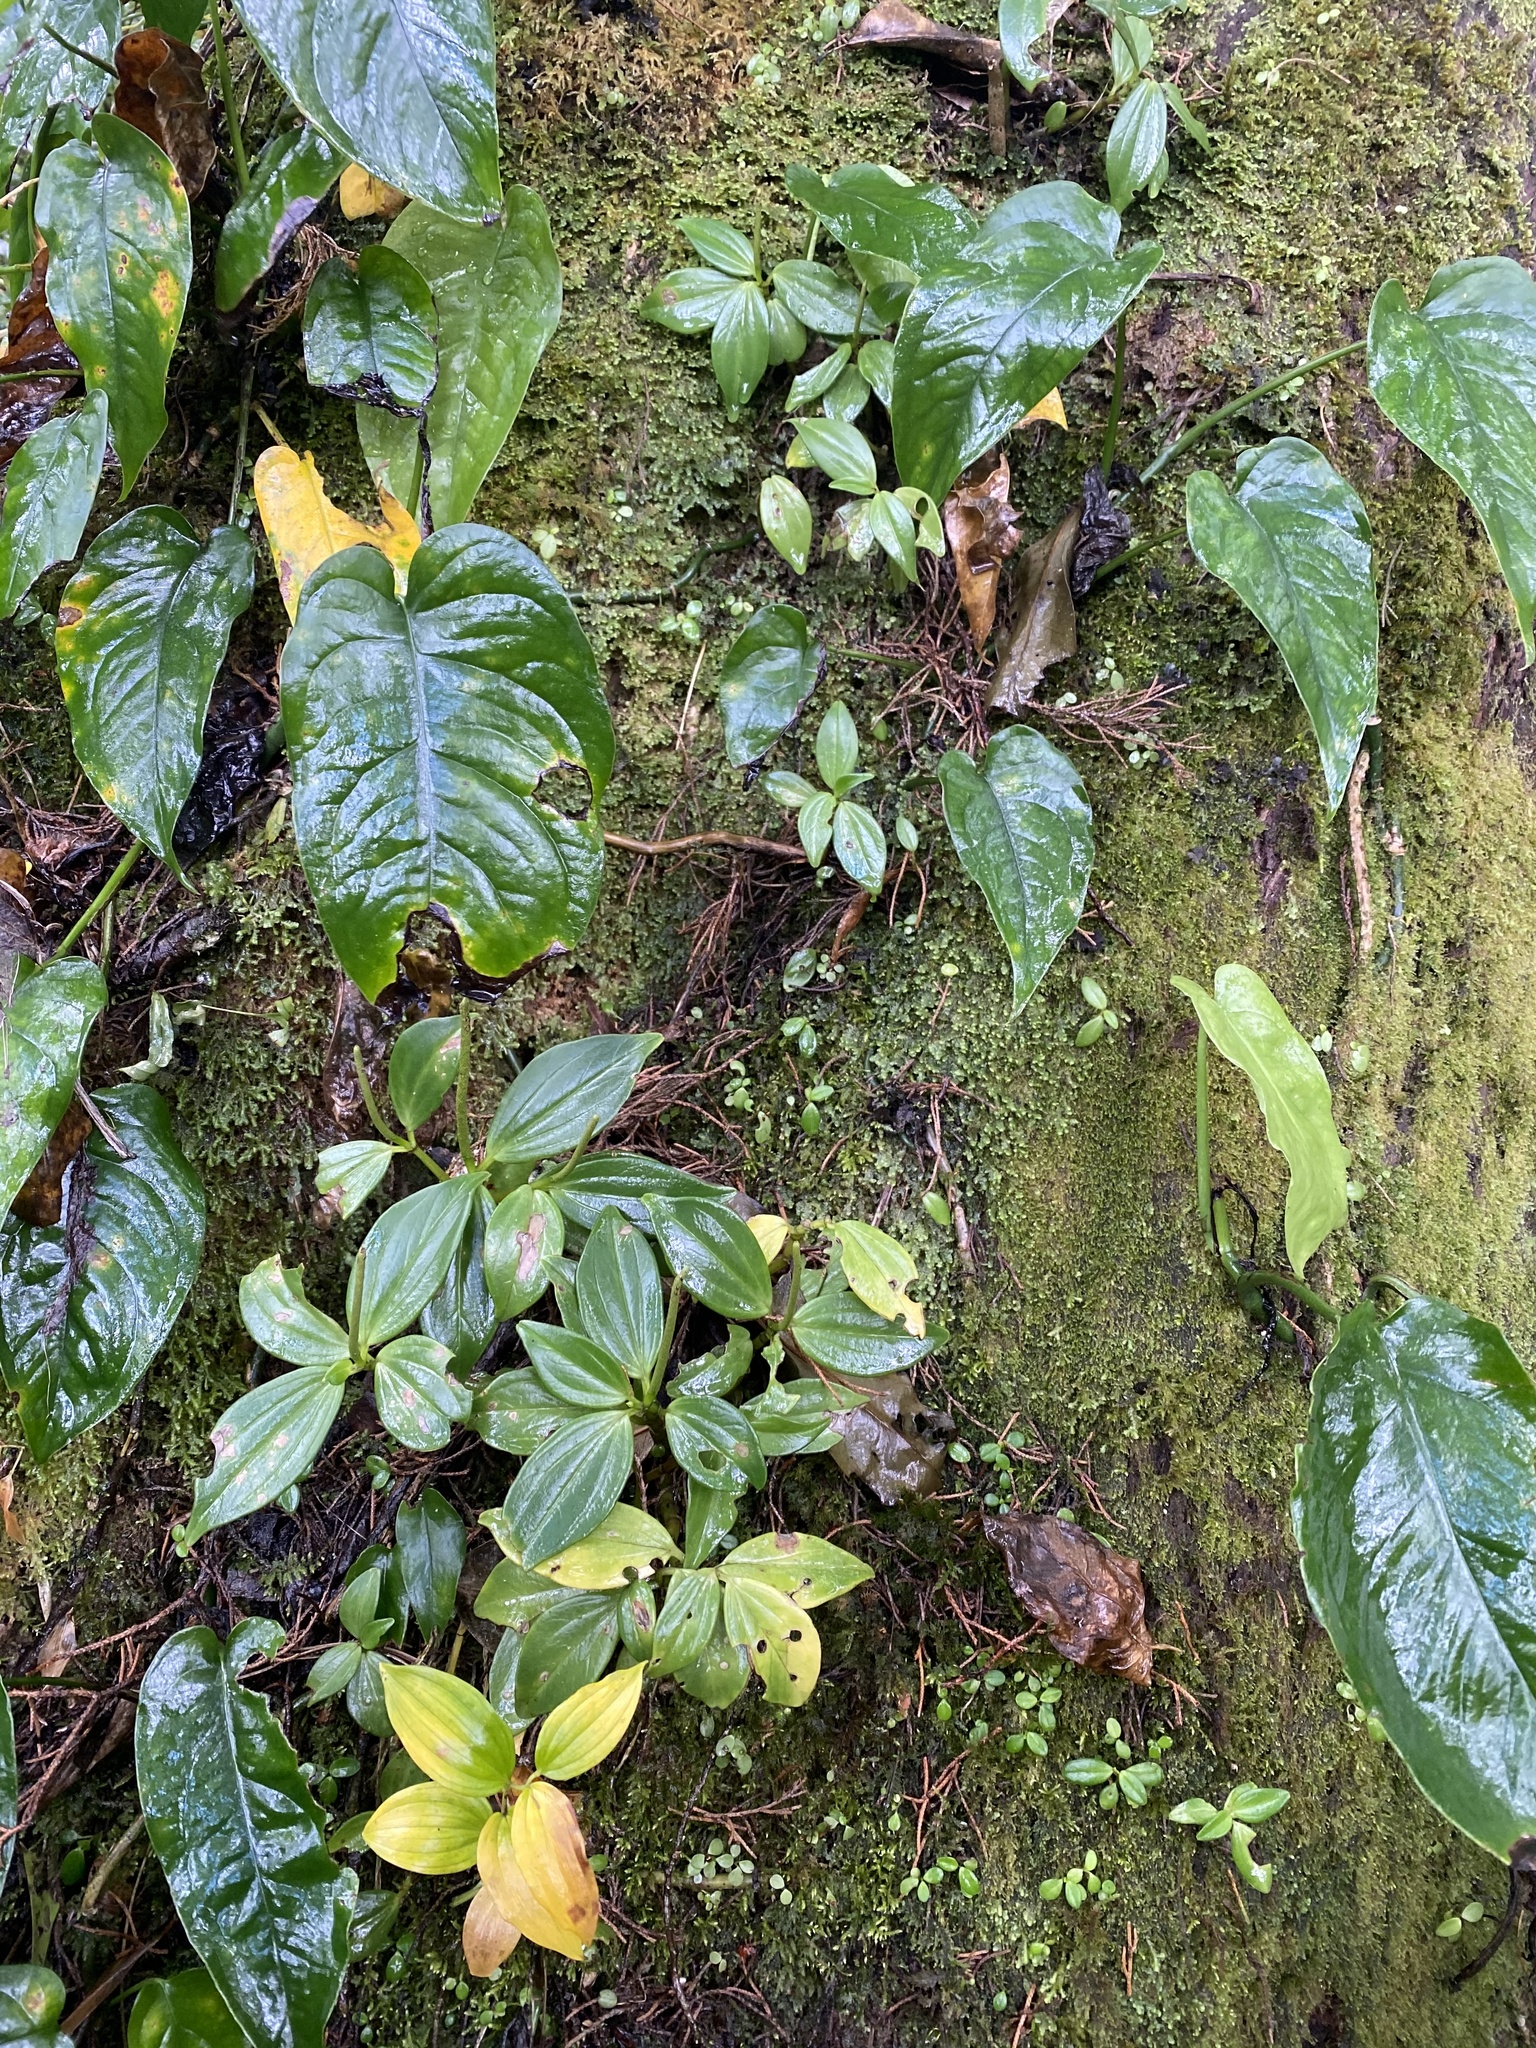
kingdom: Plantae
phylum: Tracheophyta
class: Magnoliopsida
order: Piperales
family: Piperaceae
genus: Peperomia
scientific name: Peperomia san-joseana
